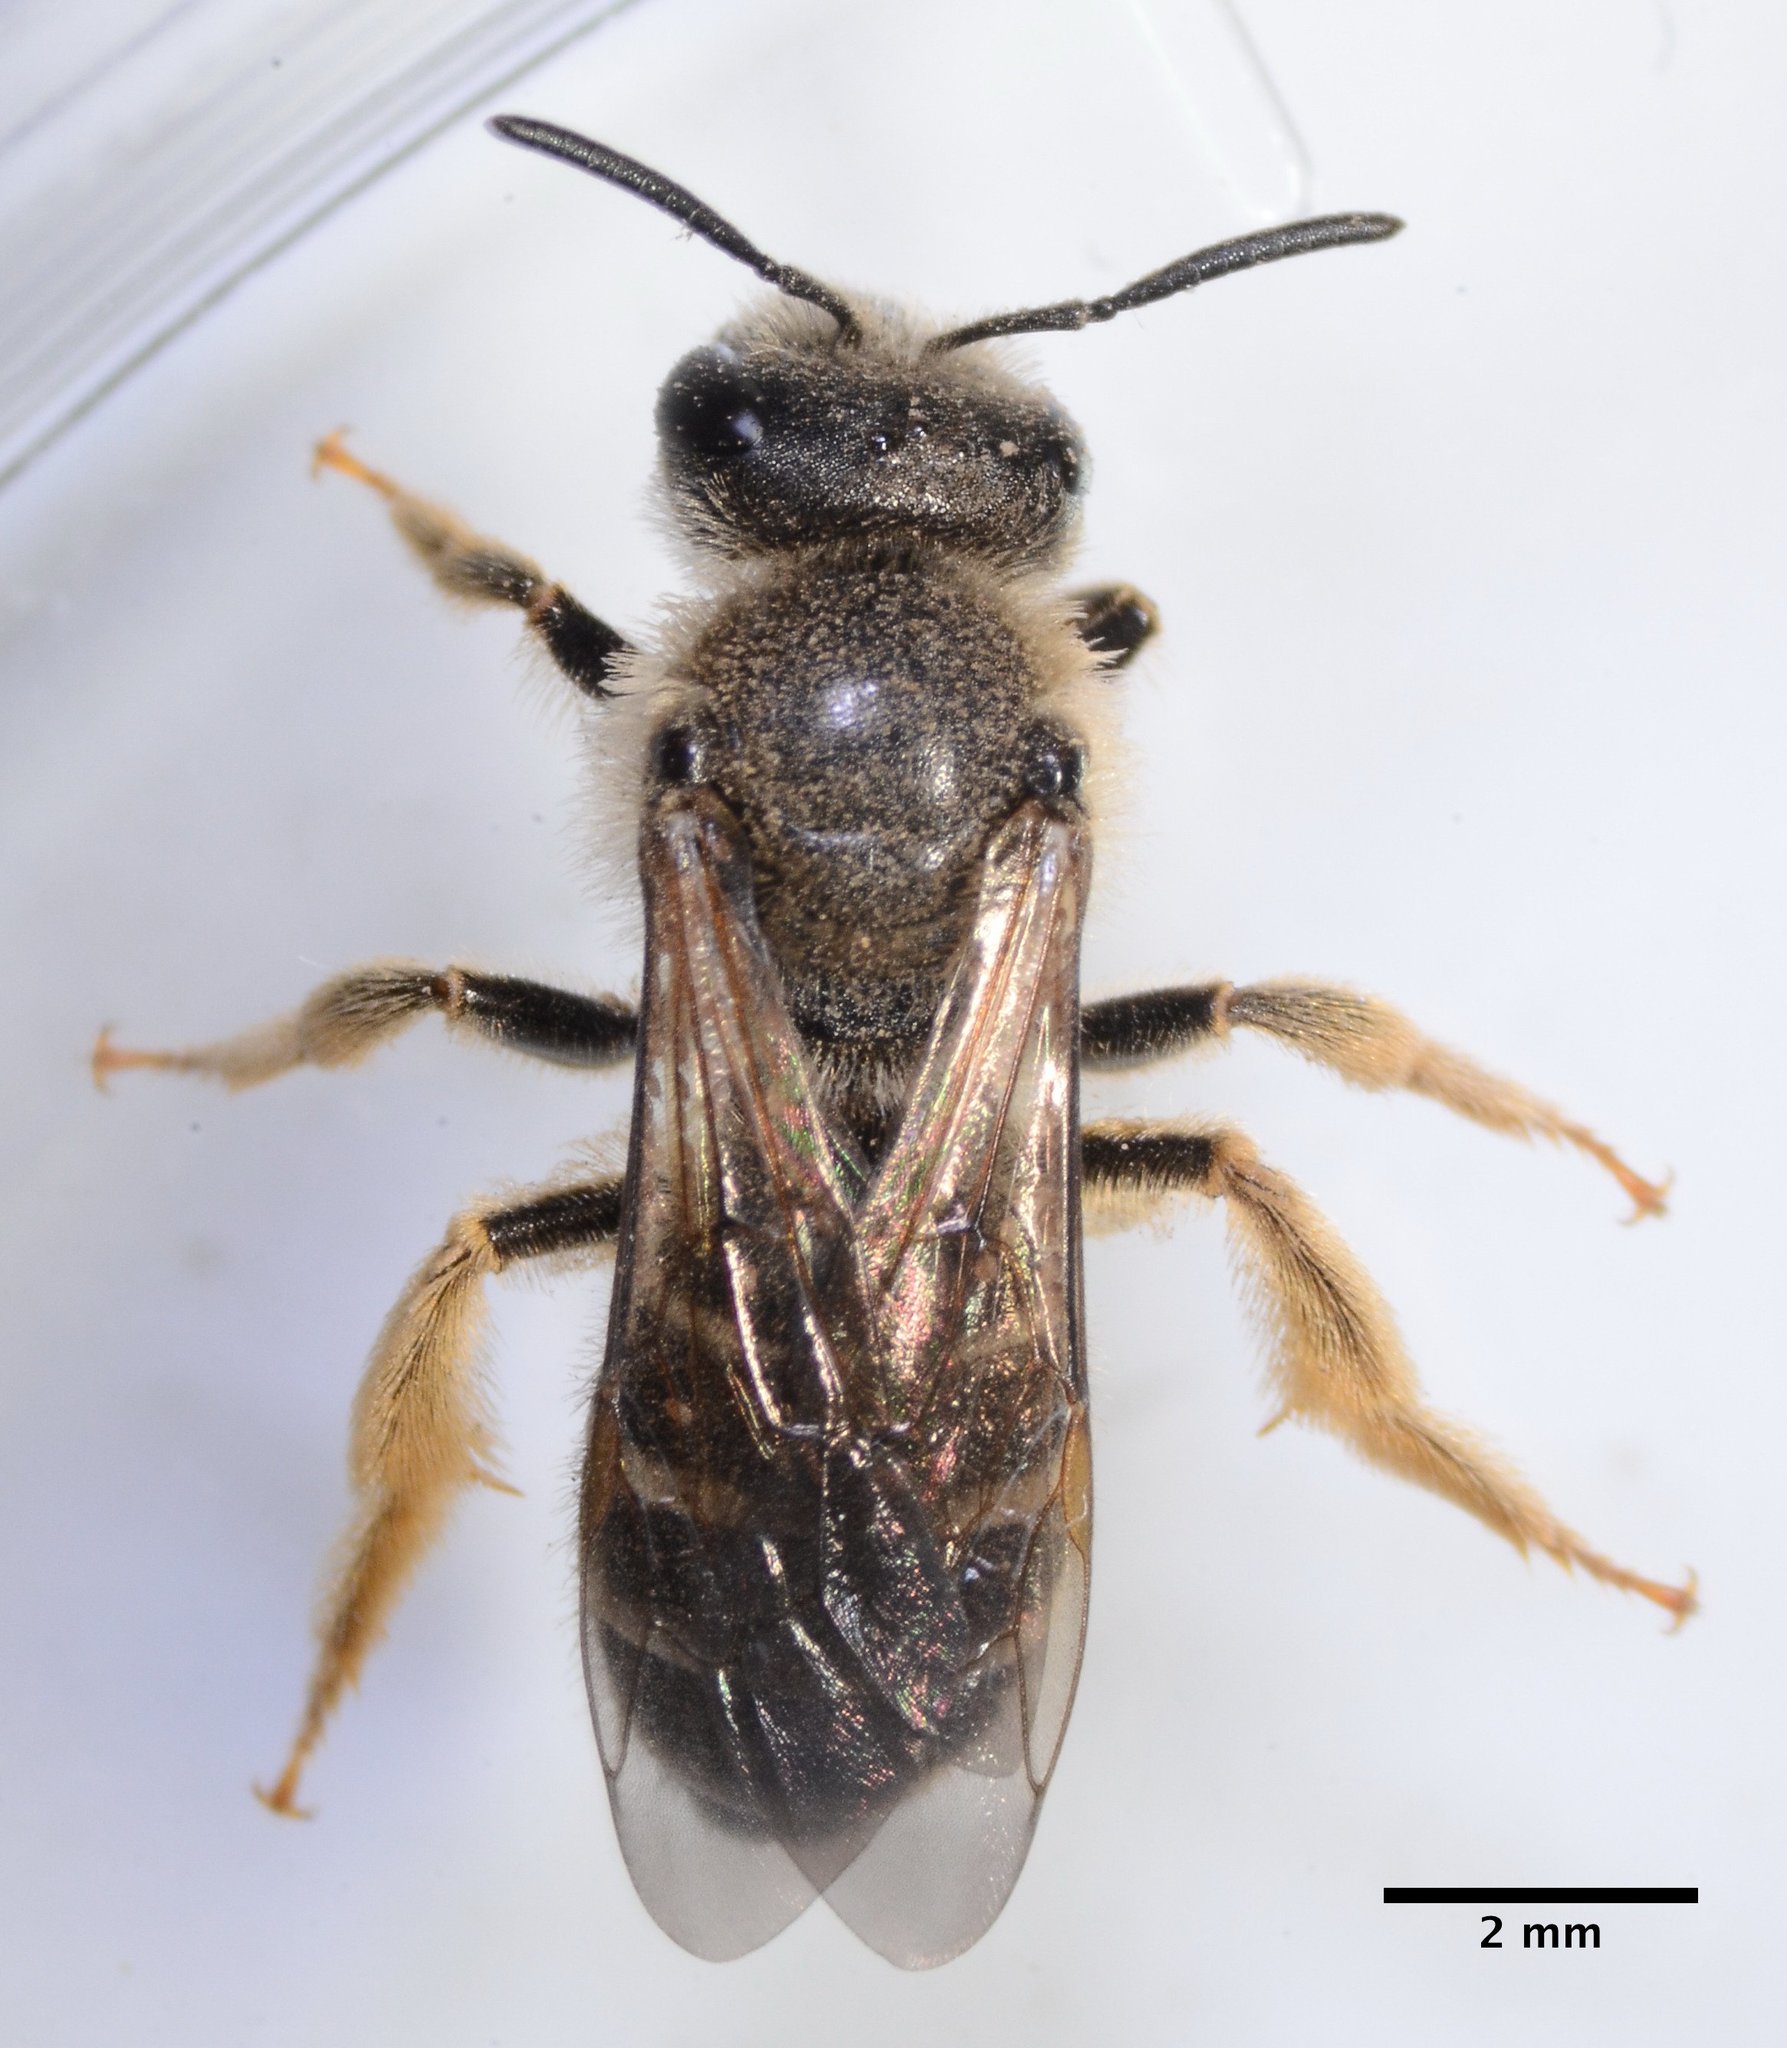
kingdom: Animalia
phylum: Arthropoda
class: Insecta
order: Hymenoptera
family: Halictidae
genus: Halictus
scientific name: Halictus rubicundus
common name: Orange-legged furrow bee
